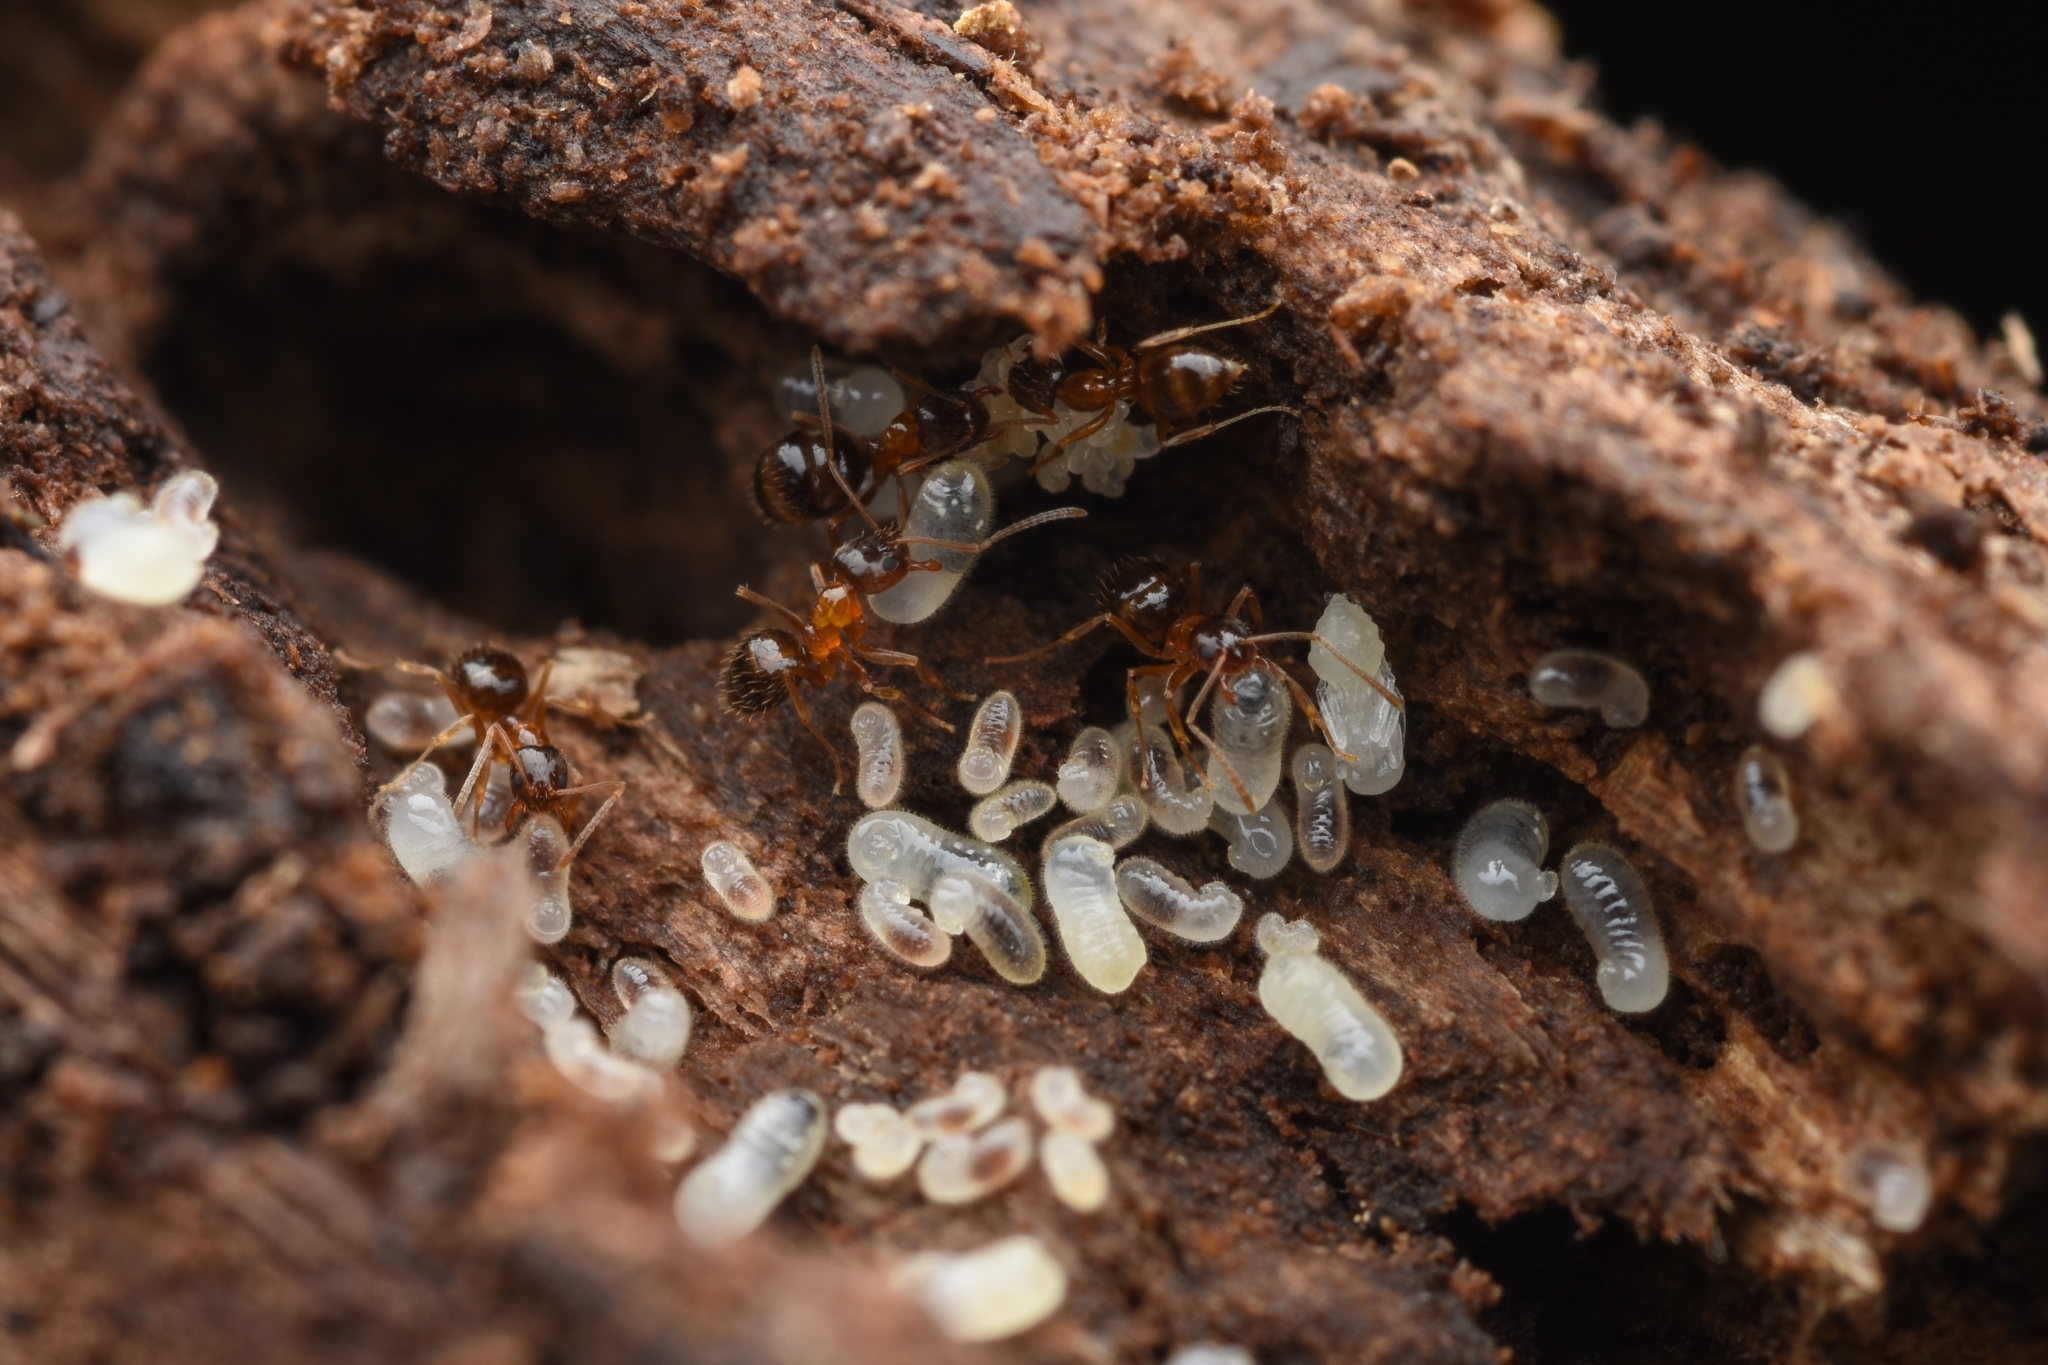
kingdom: Animalia
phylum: Arthropoda
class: Insecta
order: Hymenoptera
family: Formicidae
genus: Paratrechina
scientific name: Paratrechina flavipes
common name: Eastern asian formicine ant
